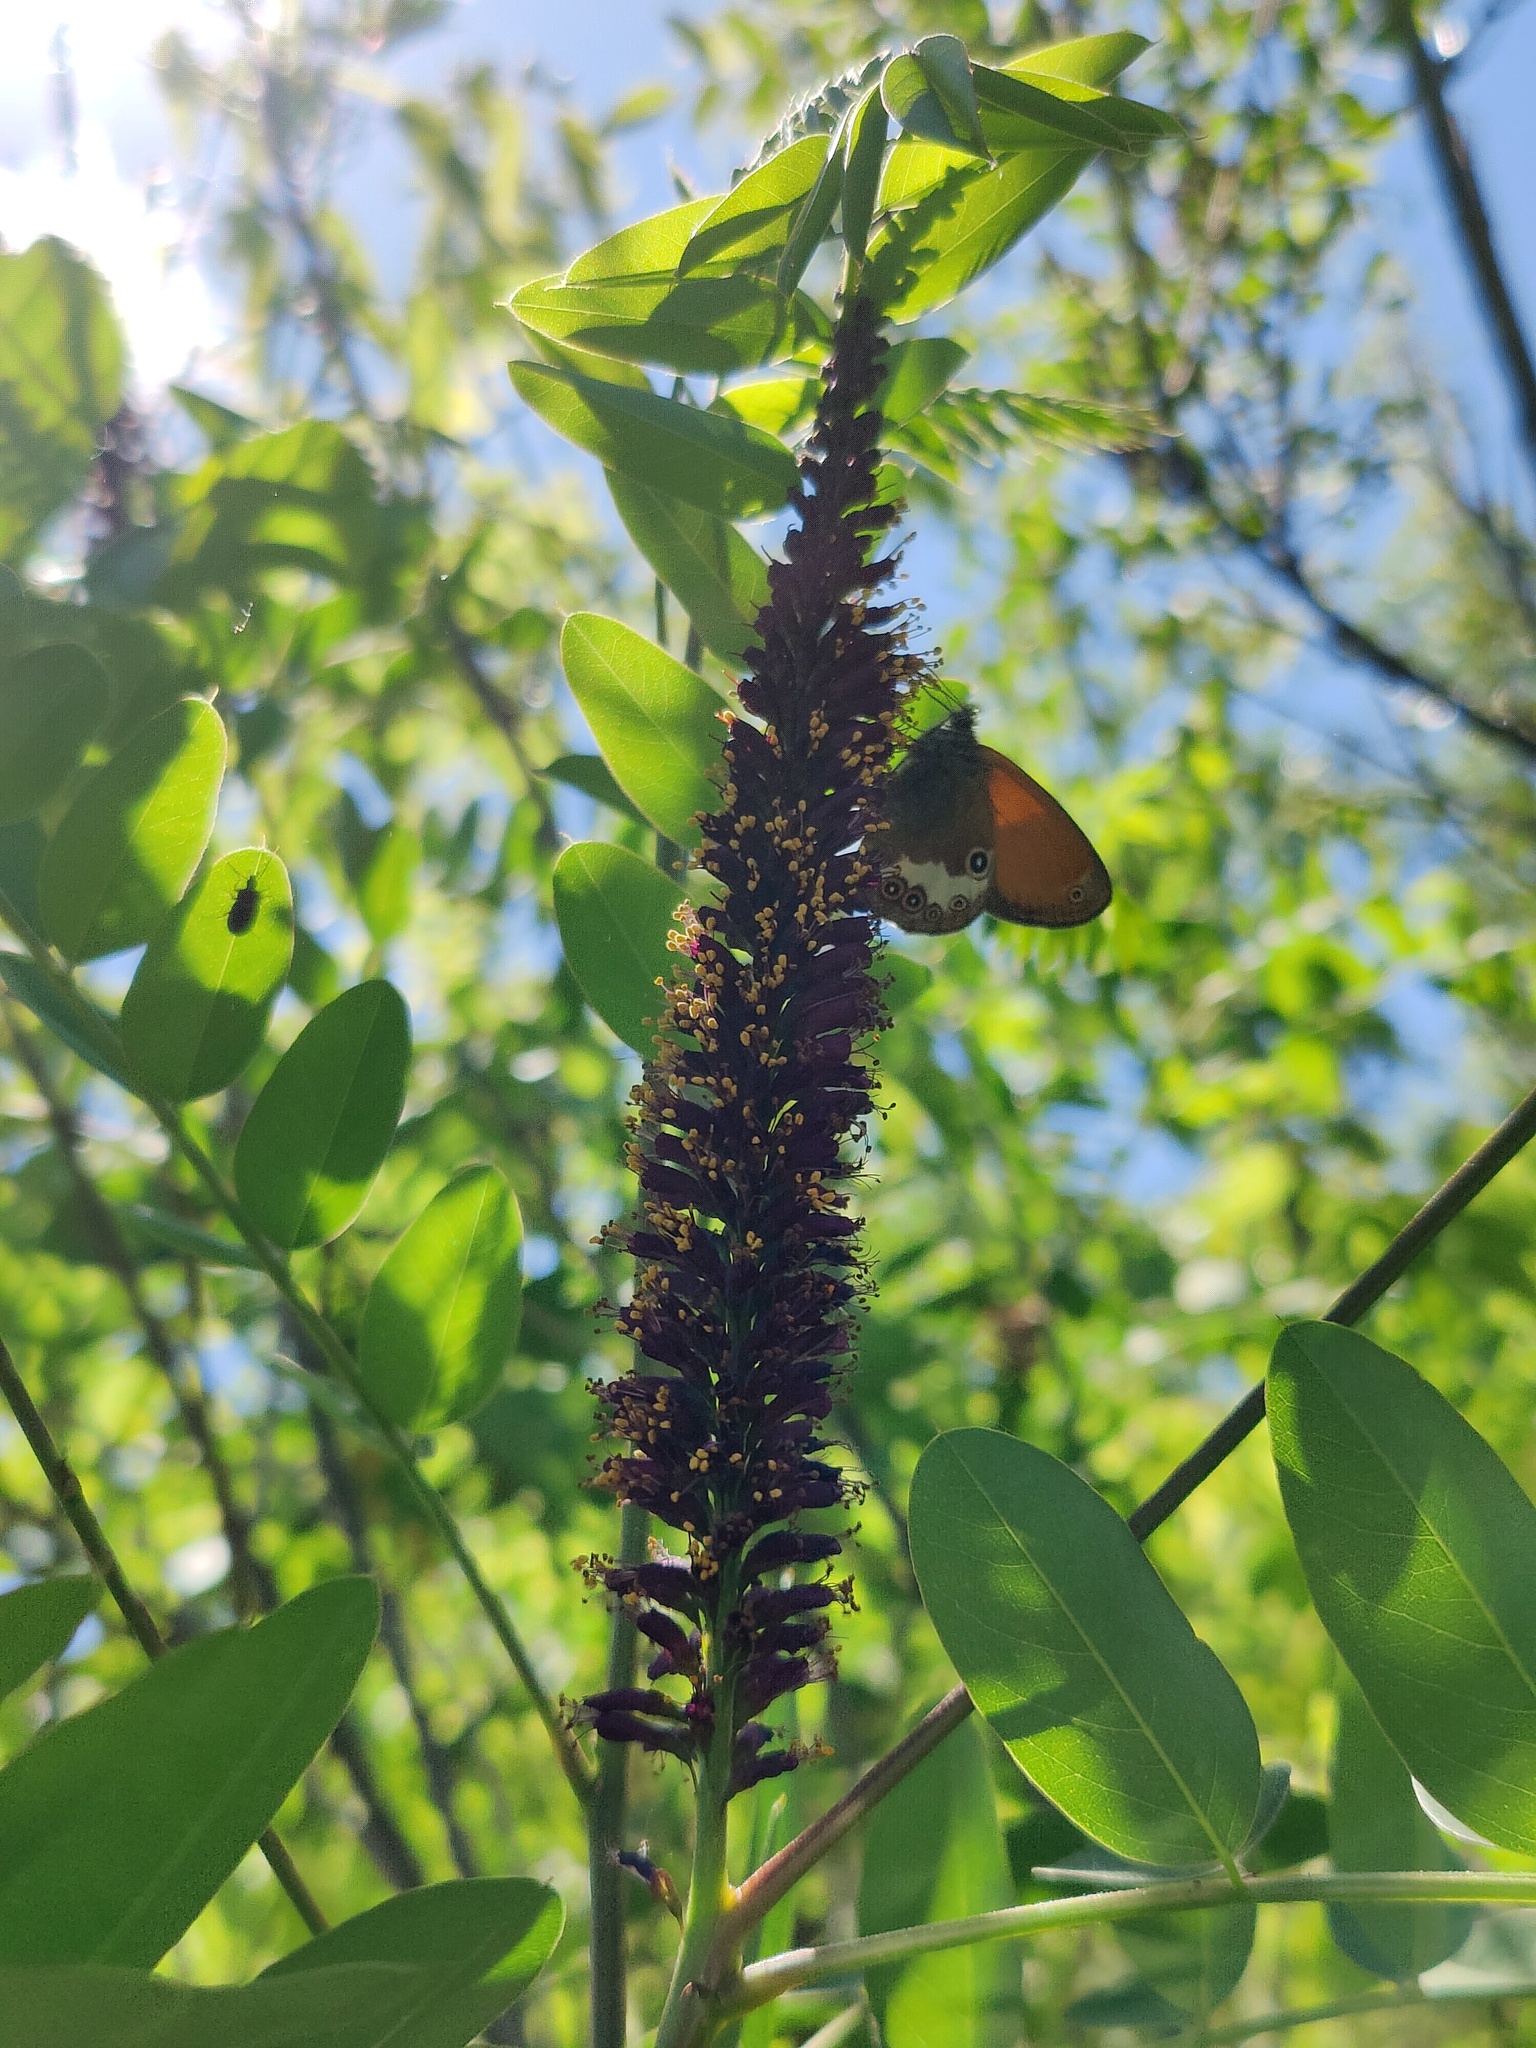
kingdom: Plantae
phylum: Tracheophyta
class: Magnoliopsida
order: Fabales
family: Fabaceae
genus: Amorpha
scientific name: Amorpha fruticosa
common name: False indigo
